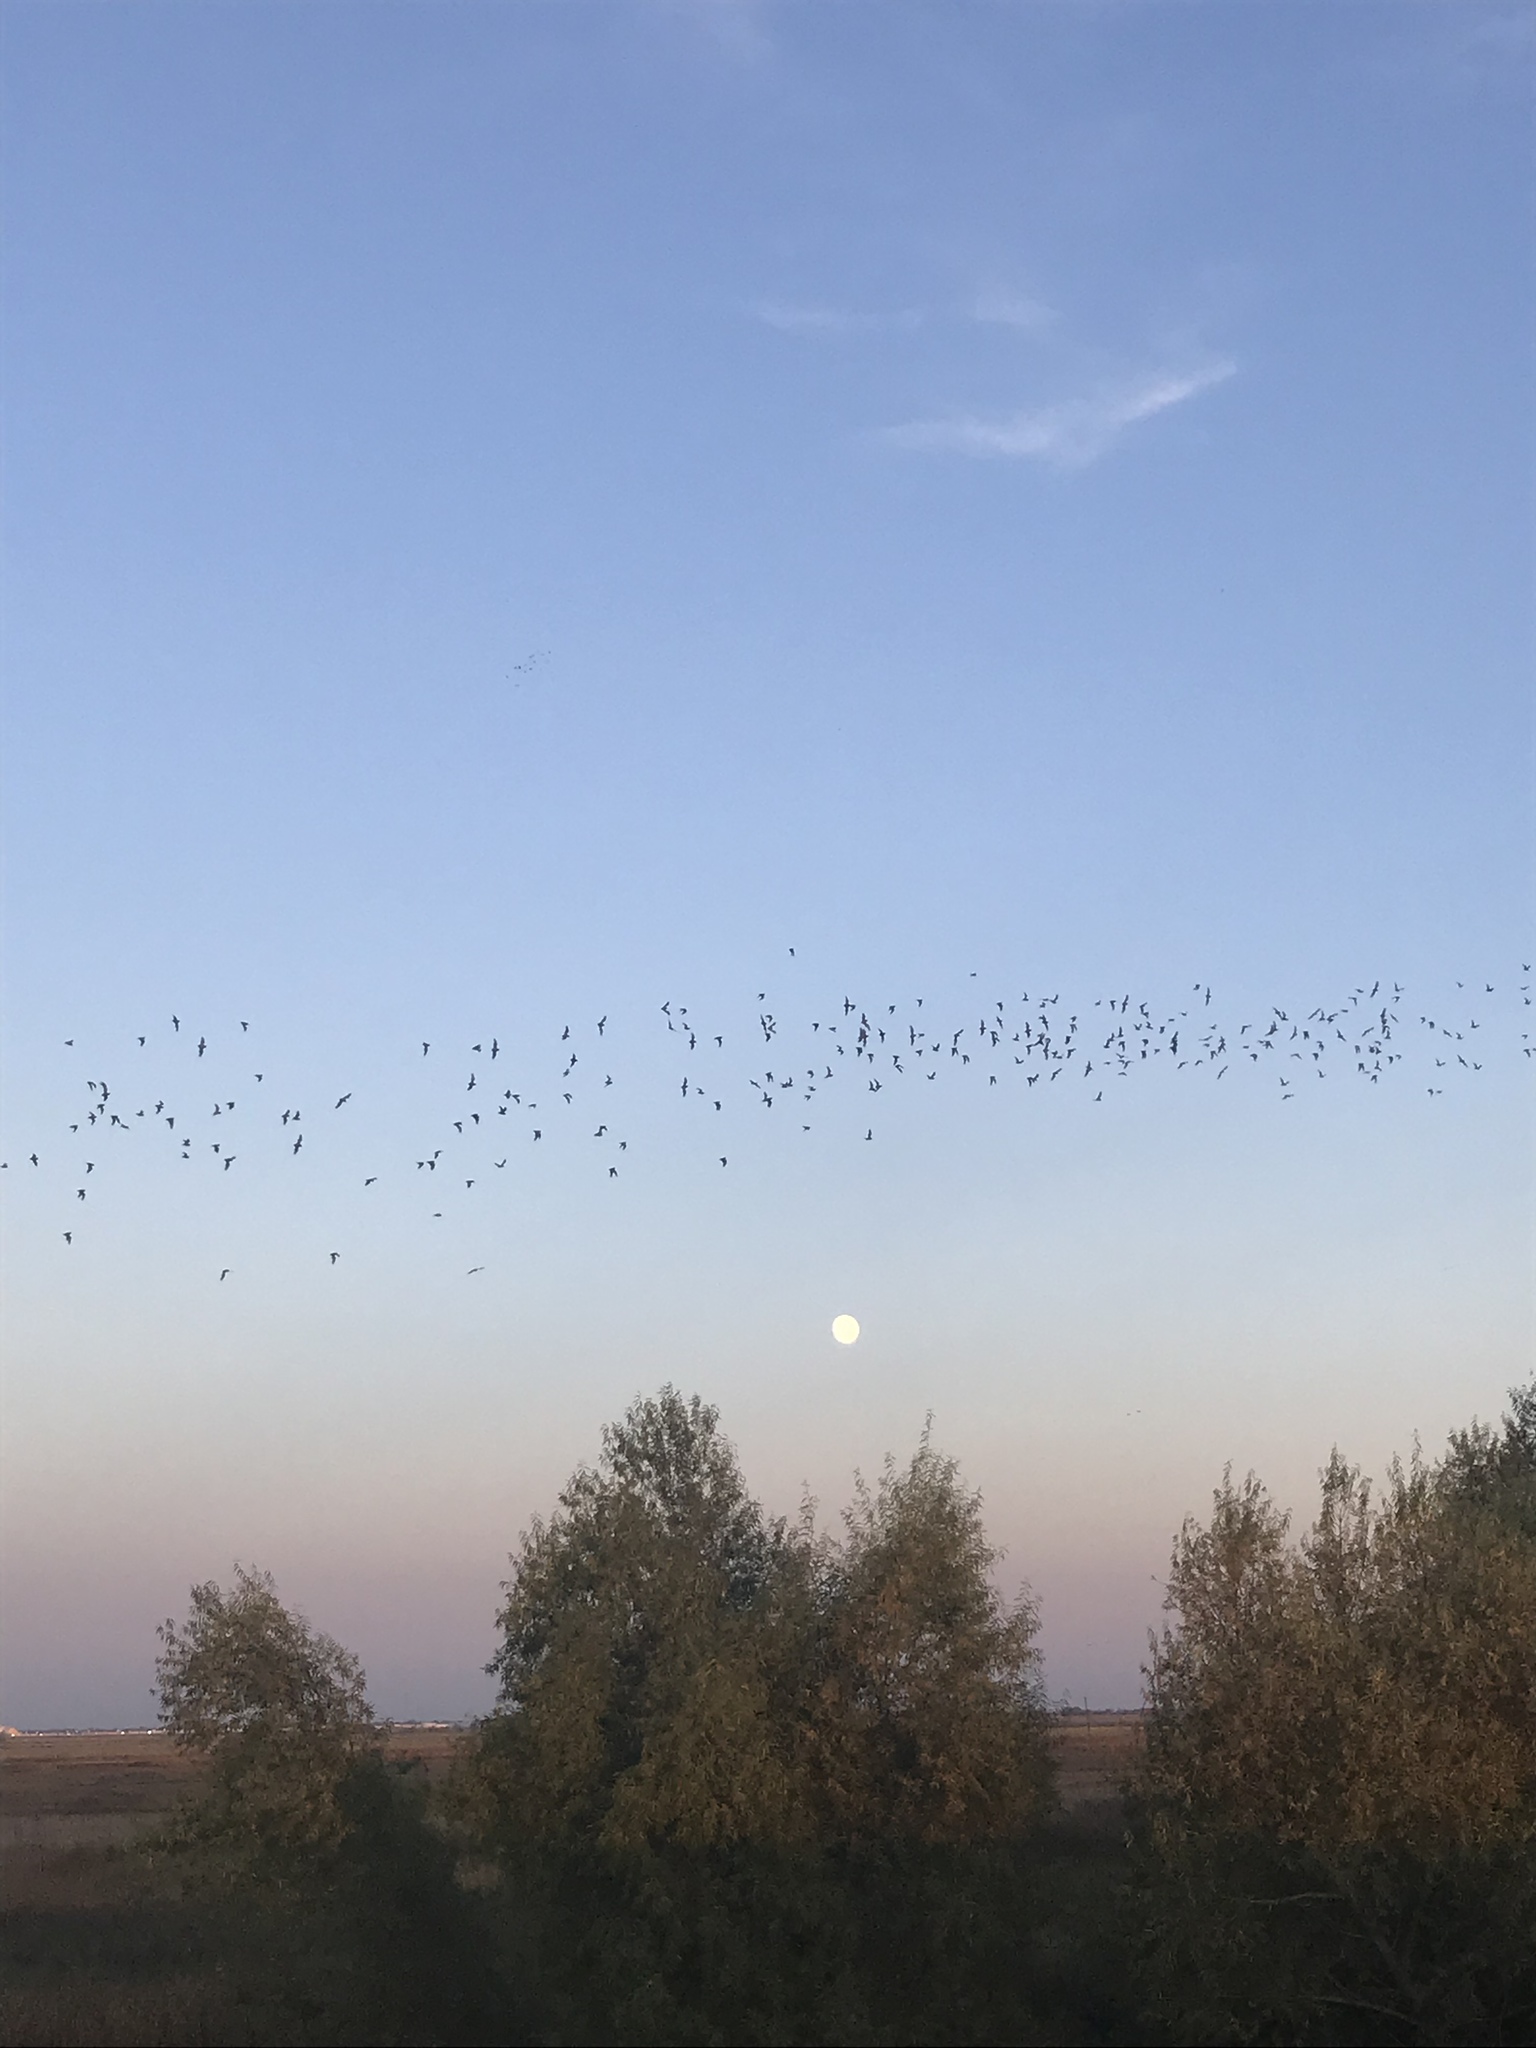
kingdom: Animalia
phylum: Chordata
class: Mammalia
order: Chiroptera
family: Molossidae
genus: Tadarida
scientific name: Tadarida brasiliensis
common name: Mexican free-tailed bat
